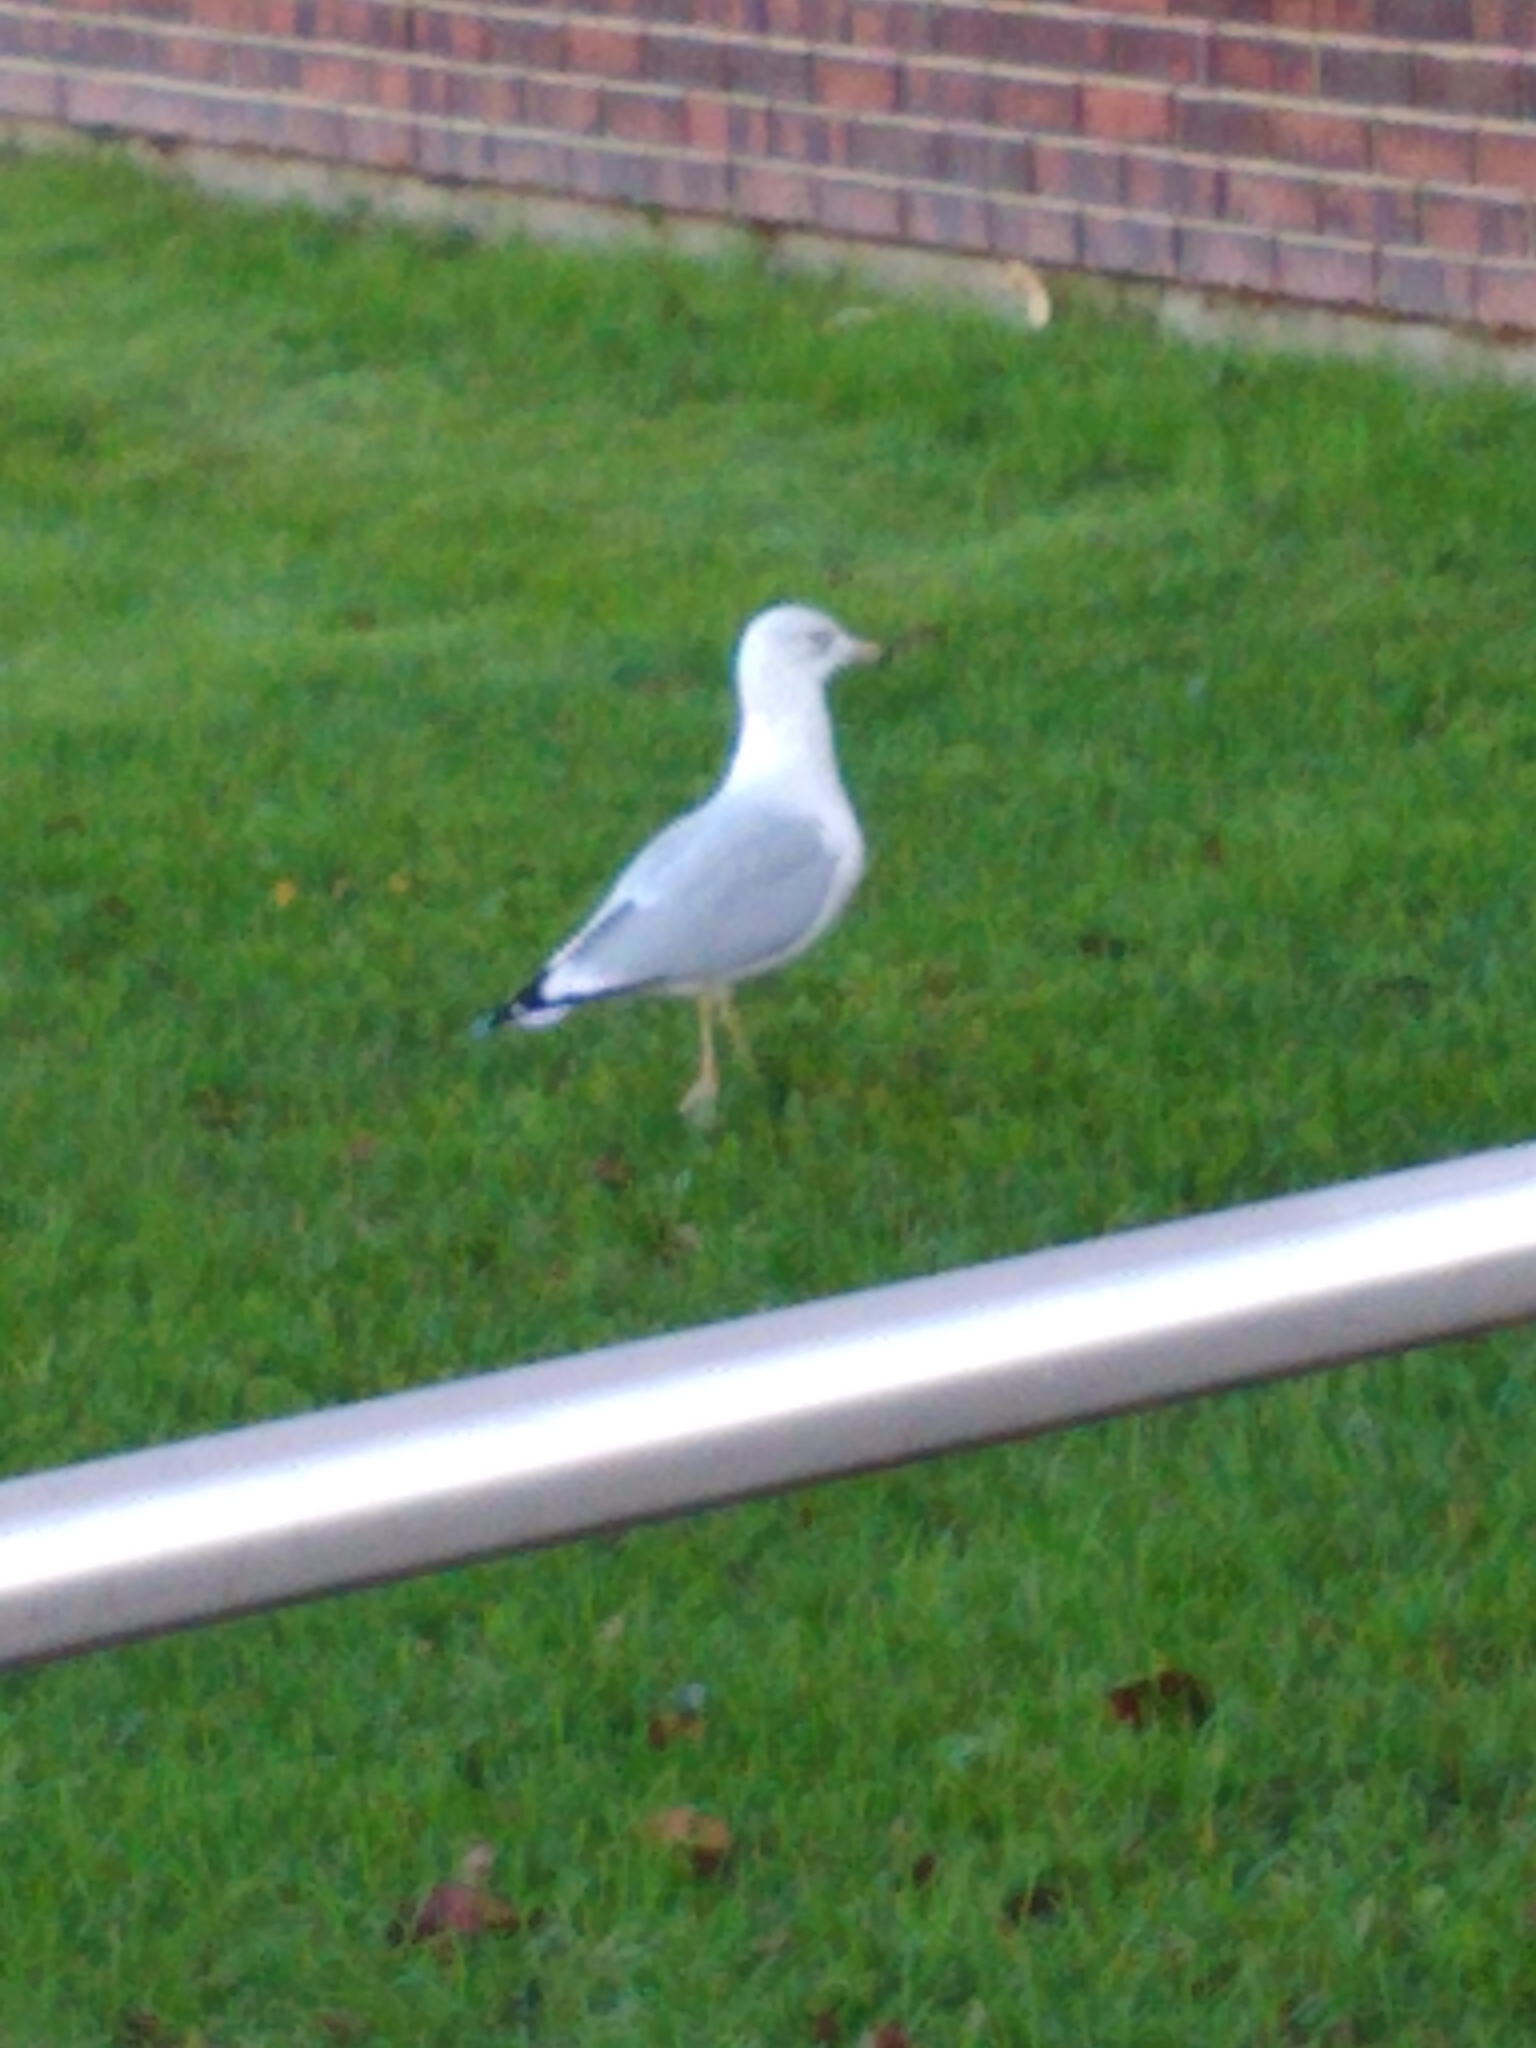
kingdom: Animalia
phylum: Chordata
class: Aves
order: Charadriiformes
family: Laridae
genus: Larus
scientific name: Larus delawarensis
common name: Ring-billed gull
